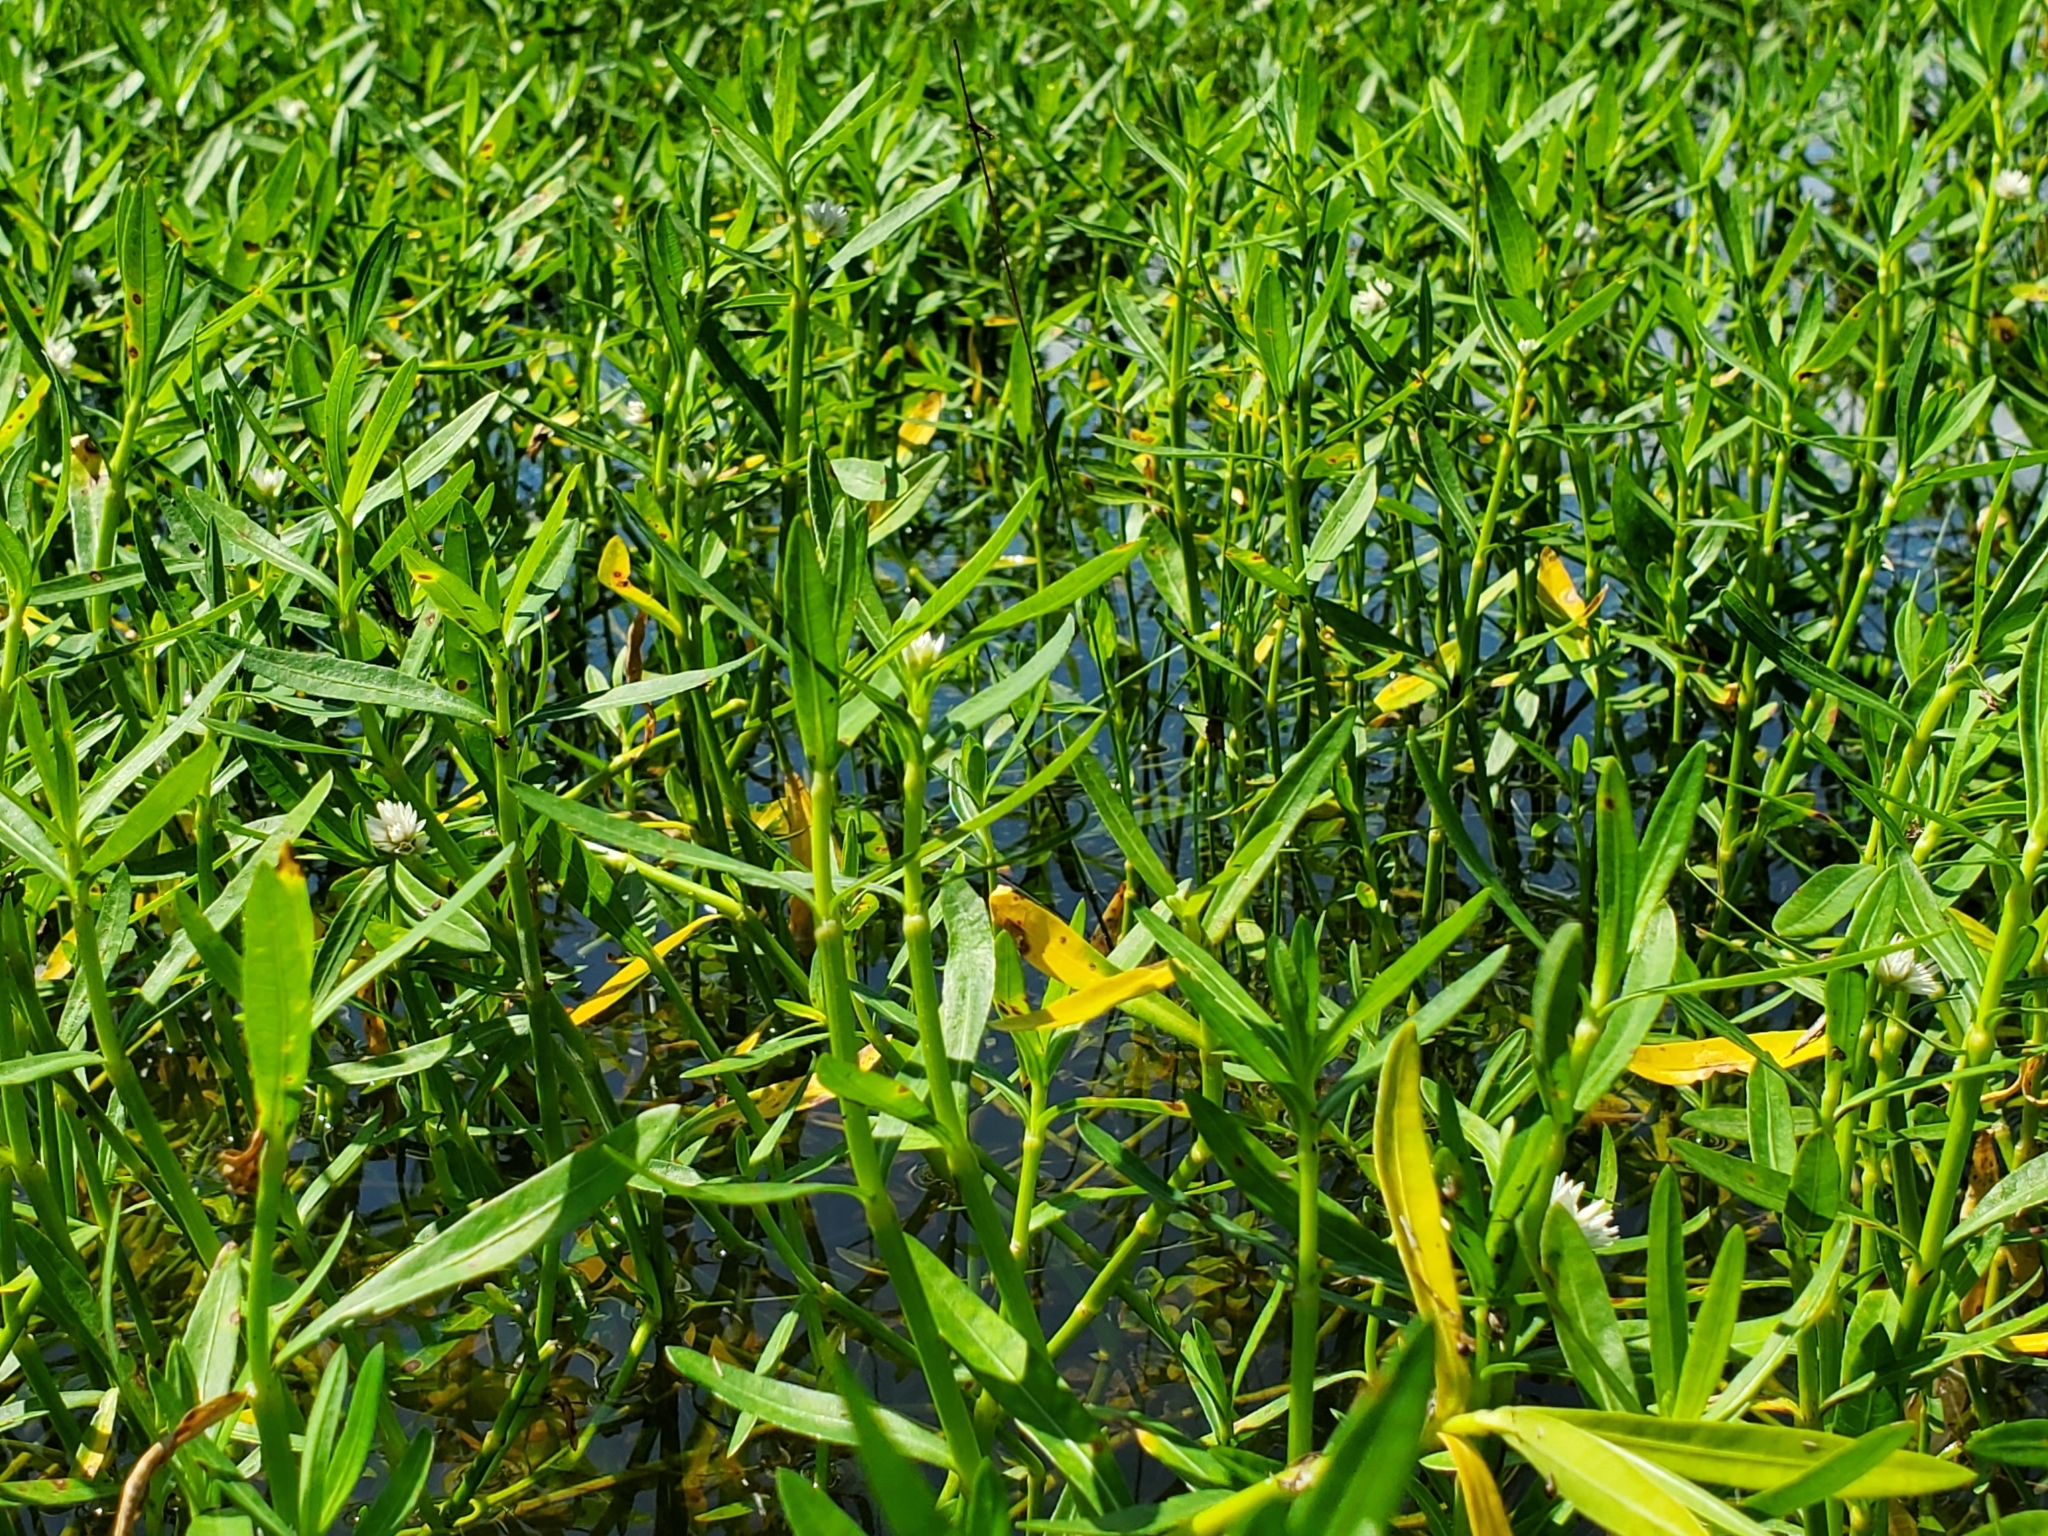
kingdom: Plantae
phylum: Tracheophyta
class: Magnoliopsida
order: Caryophyllales
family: Amaranthaceae
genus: Alternanthera
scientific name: Alternanthera philoxeroides
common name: Alligatorweed
